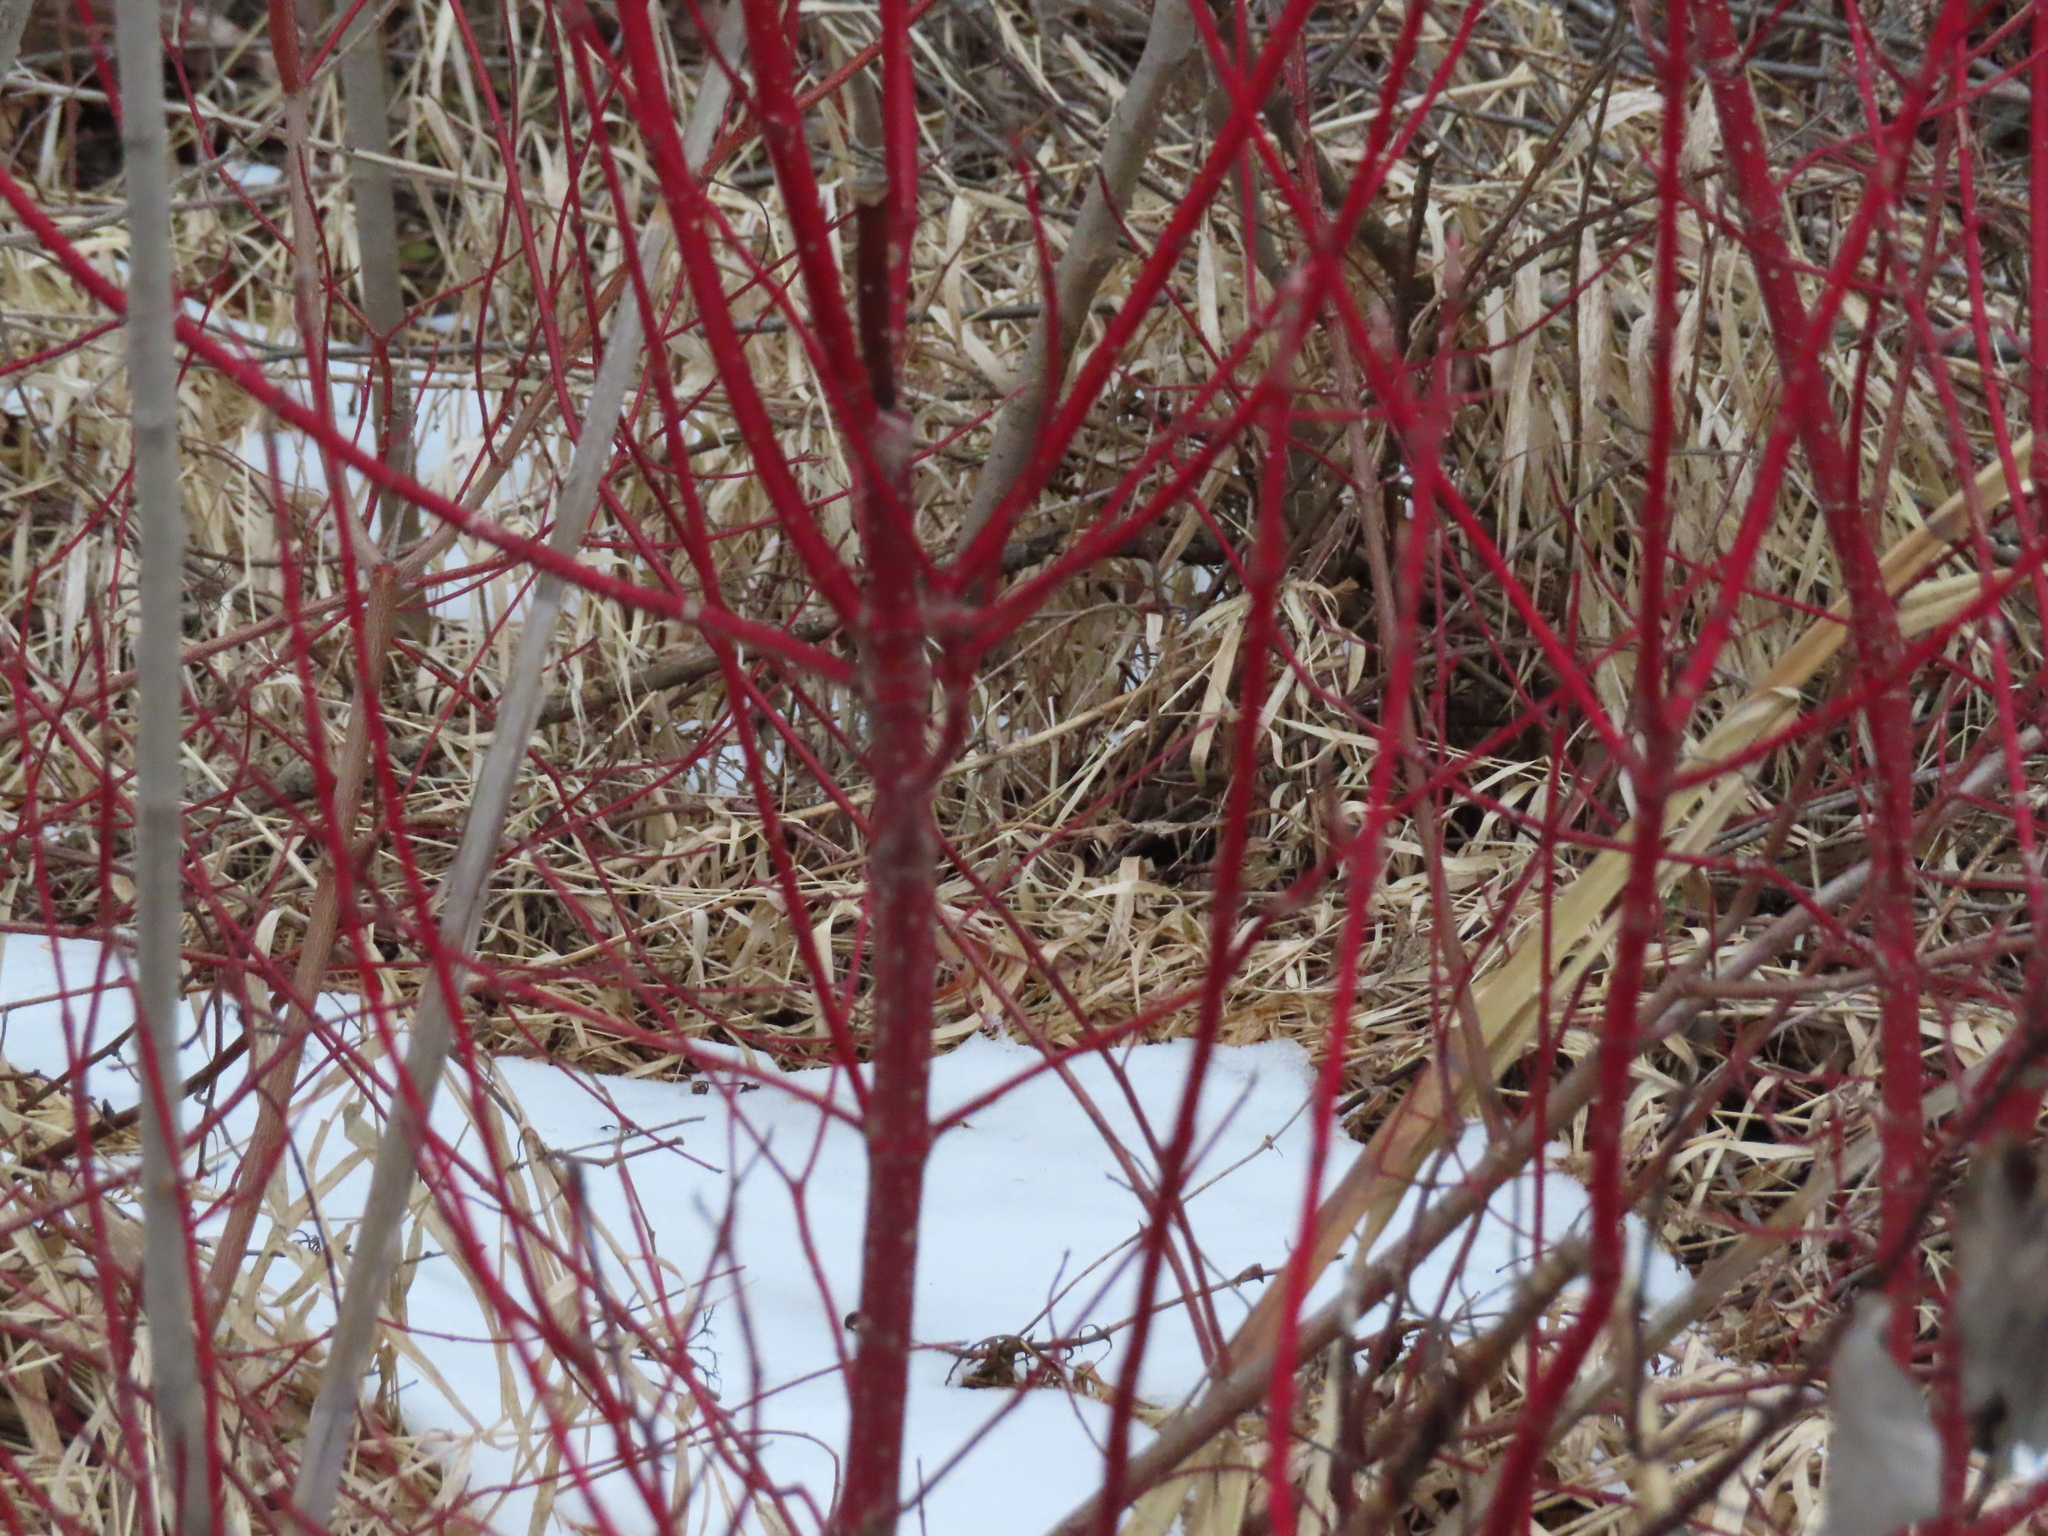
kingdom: Plantae
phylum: Tracheophyta
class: Magnoliopsida
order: Cornales
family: Cornaceae
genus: Cornus
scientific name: Cornus sericea
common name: Red-osier dogwood
